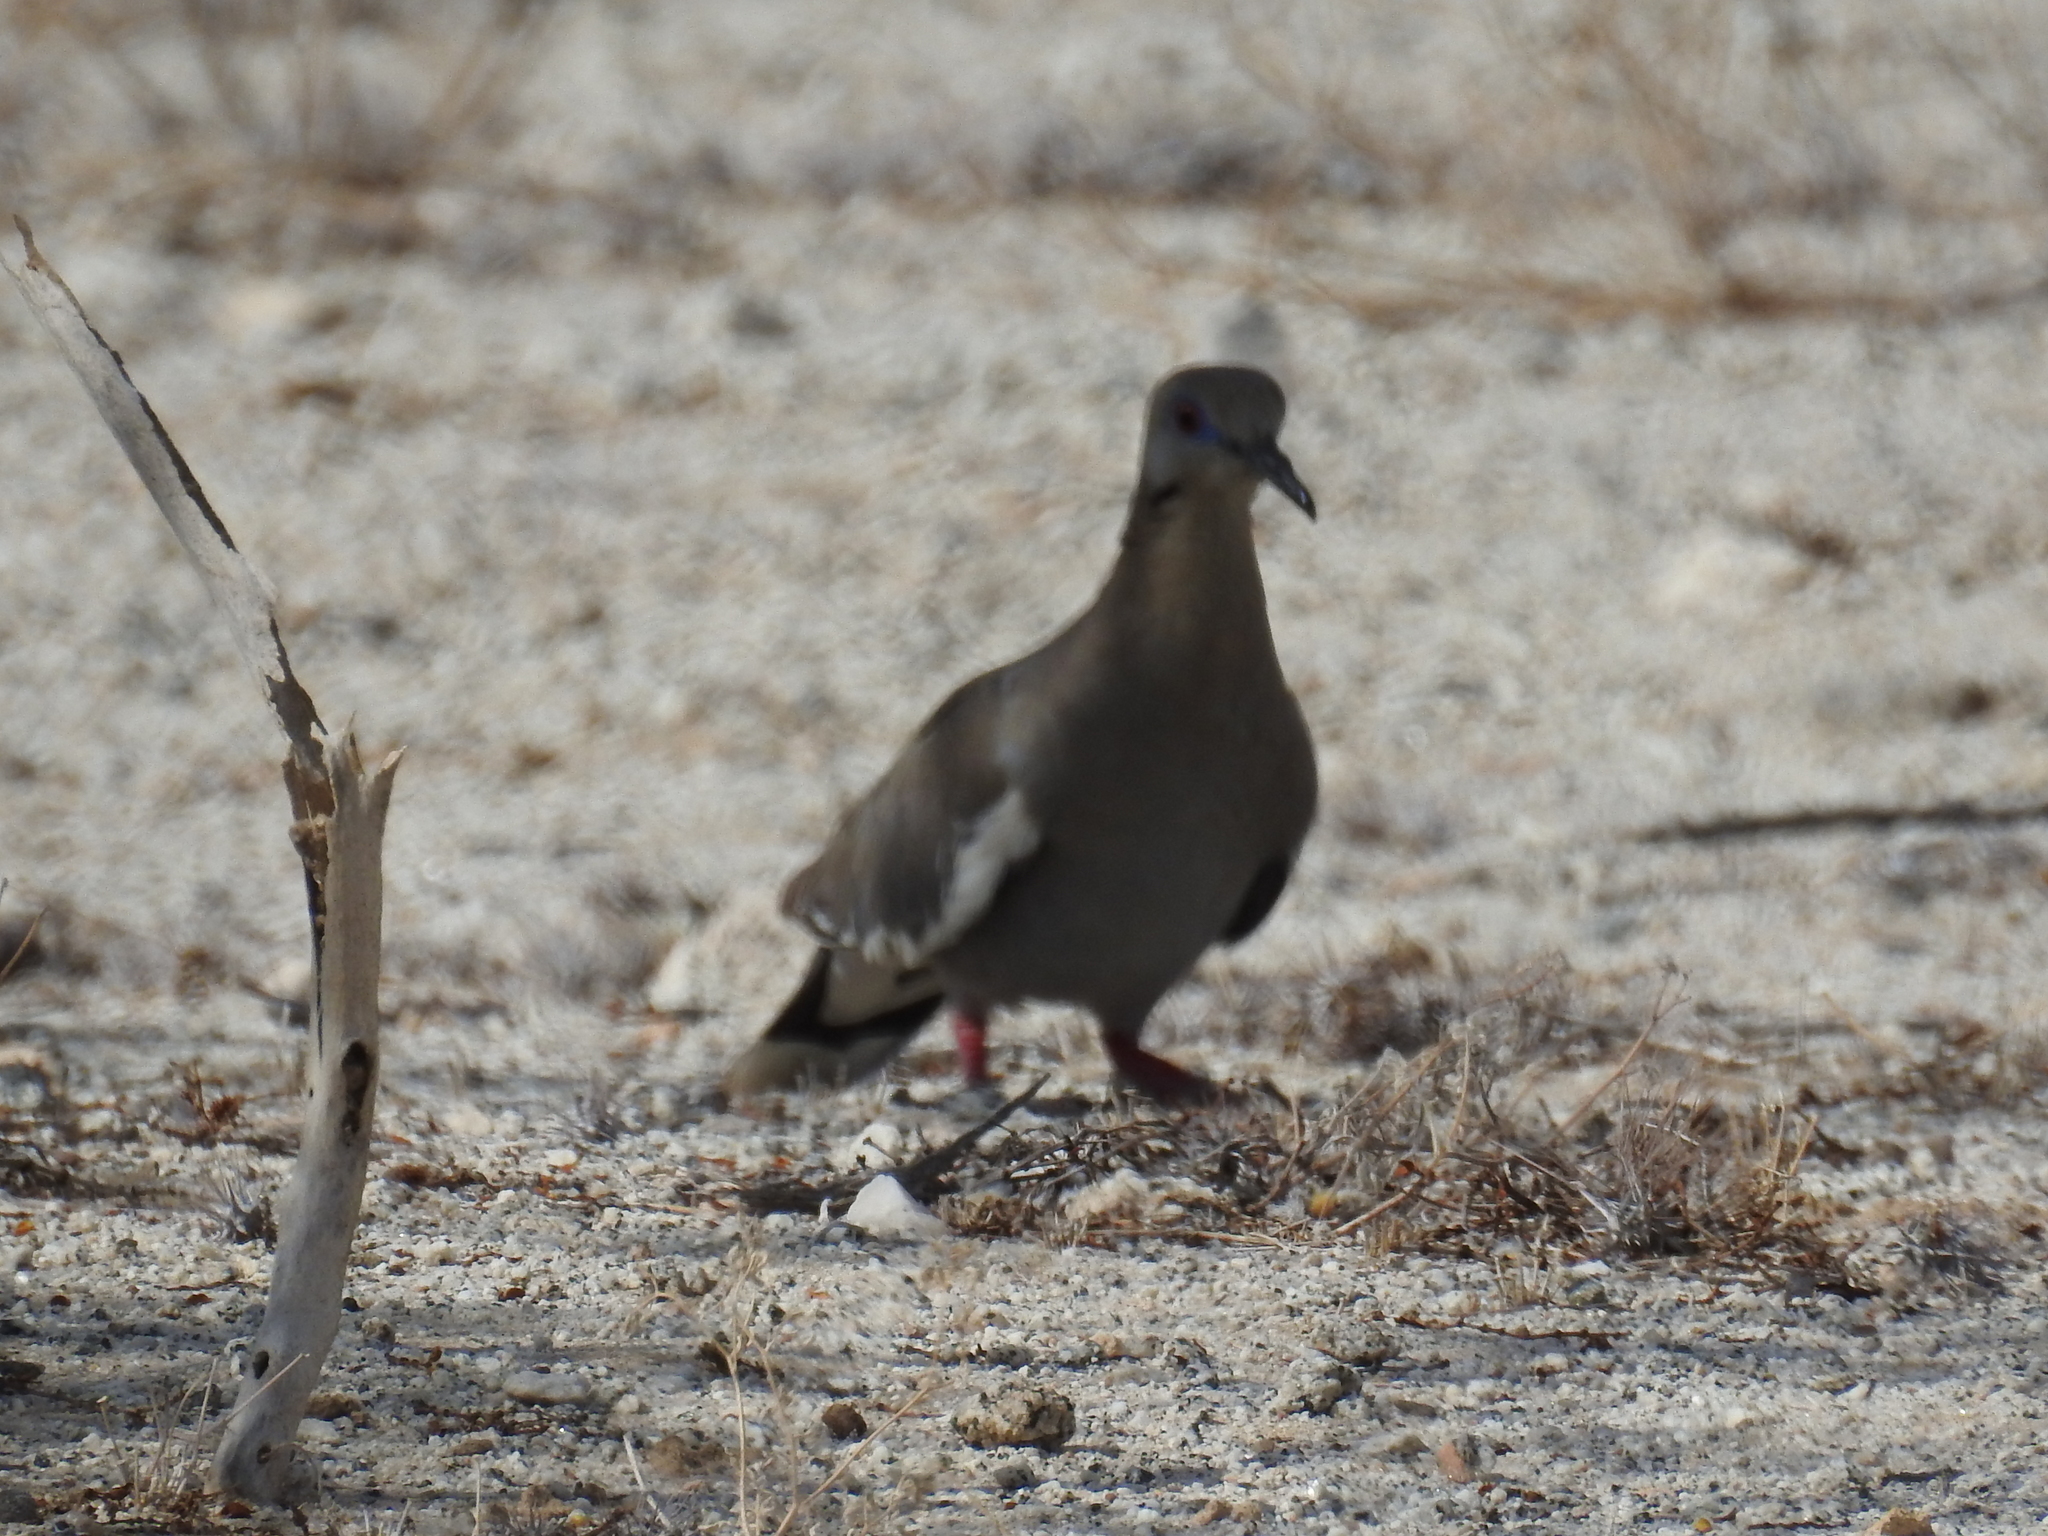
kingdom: Animalia
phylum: Chordata
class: Aves
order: Columbiformes
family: Columbidae
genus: Zenaida
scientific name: Zenaida asiatica
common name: White-winged dove
